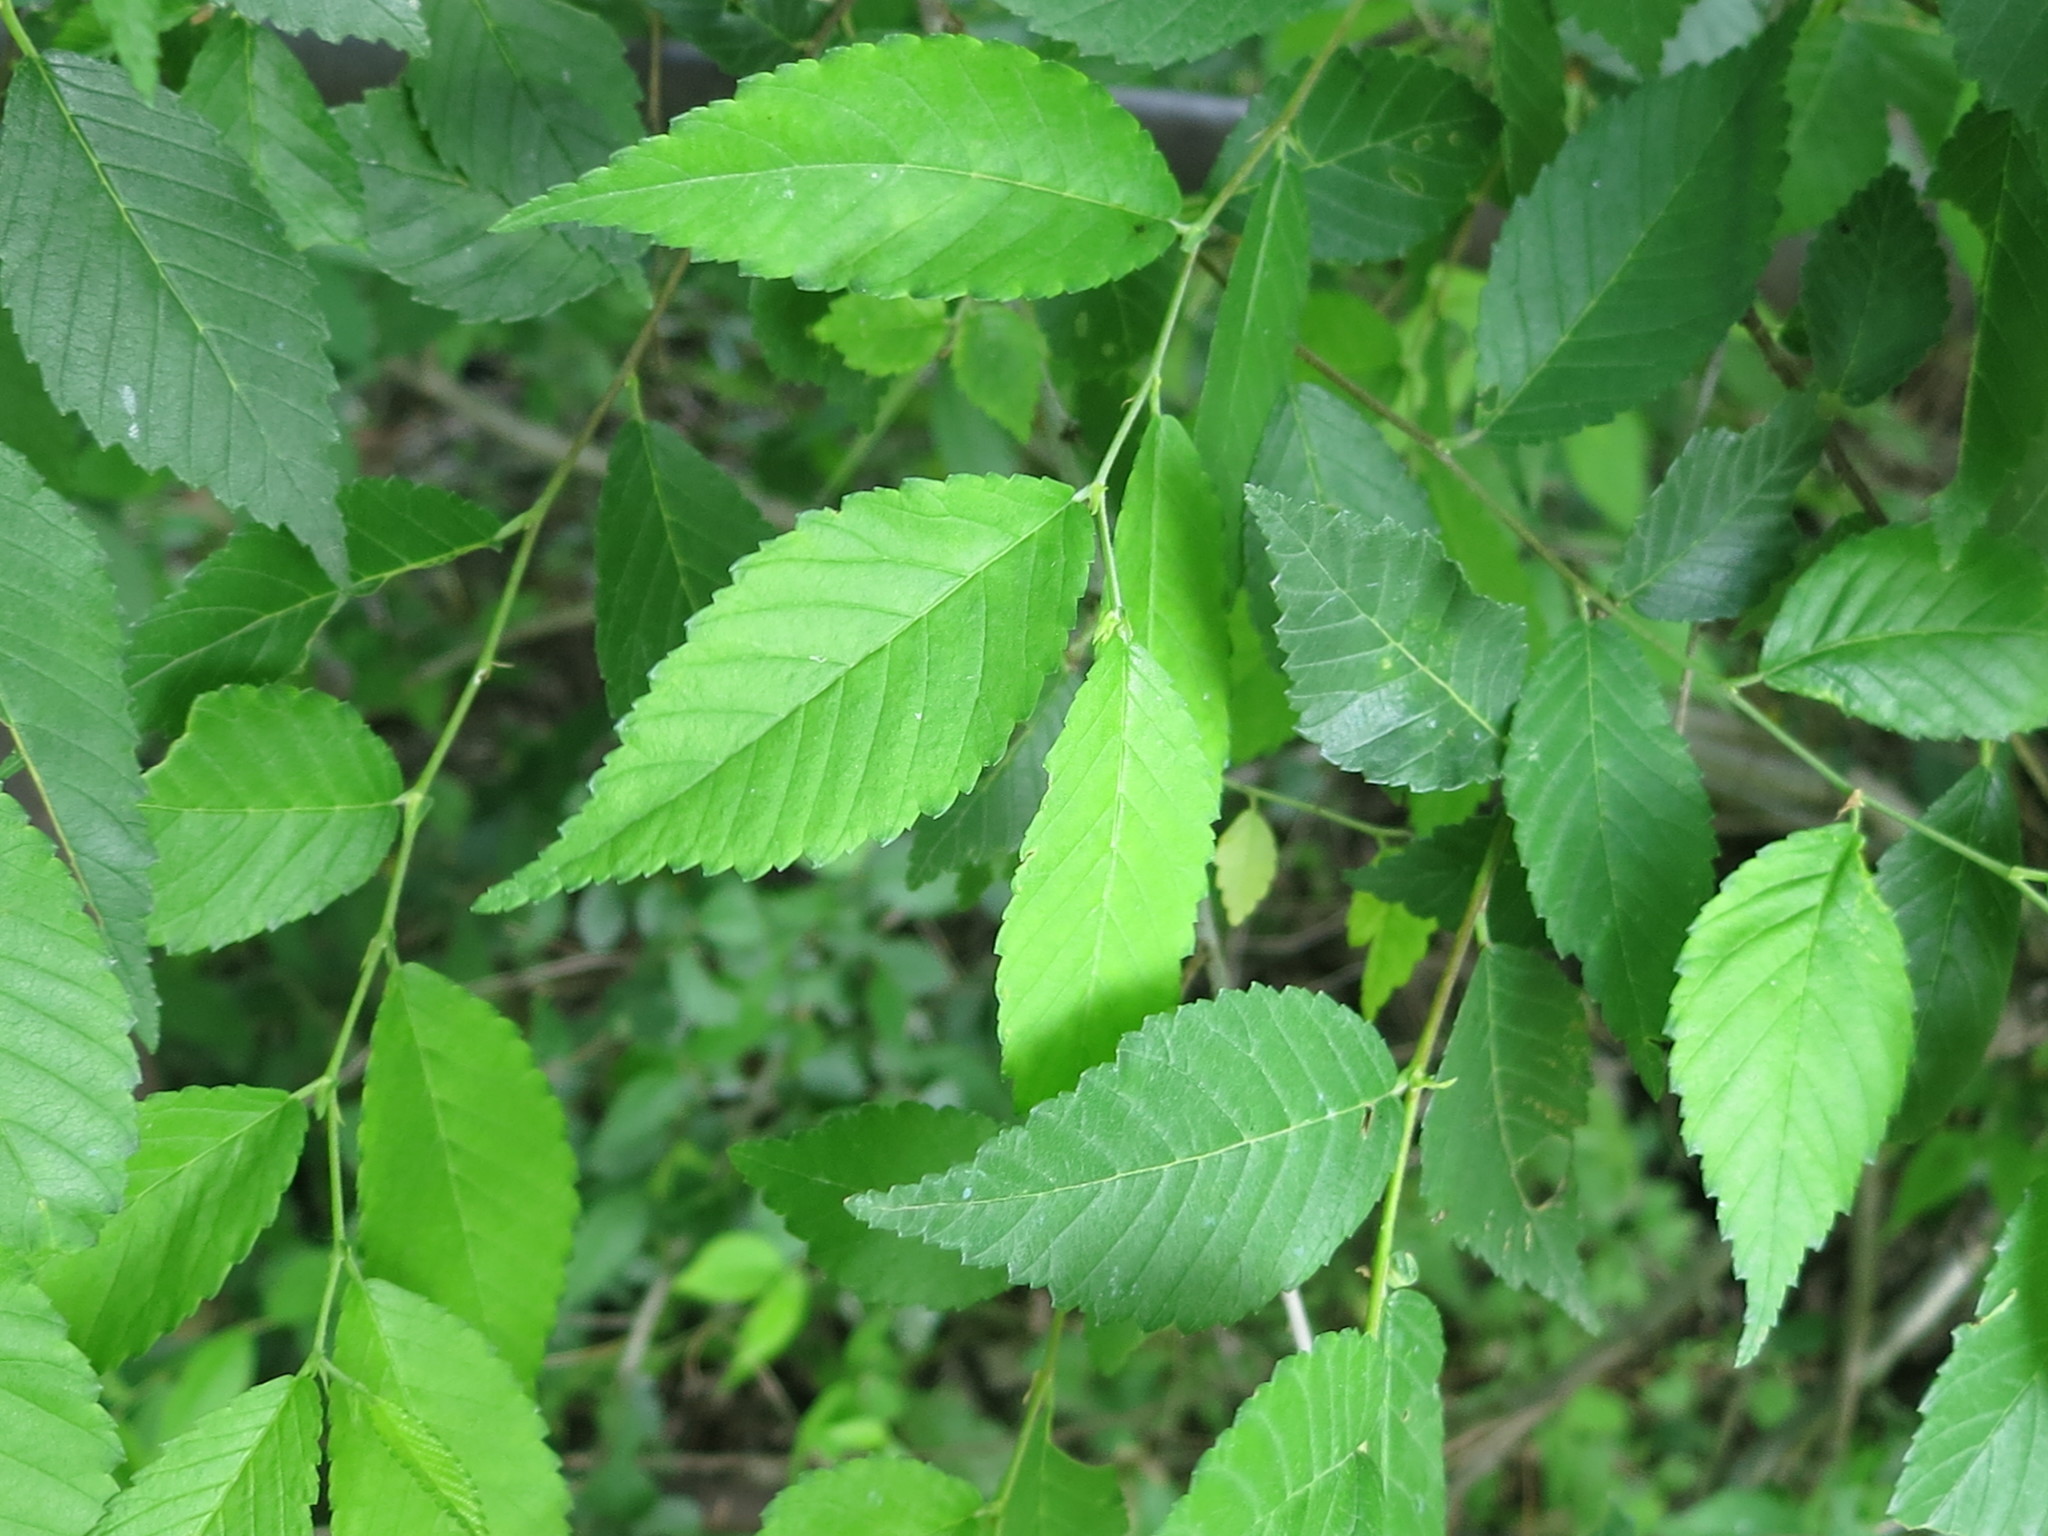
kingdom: Plantae
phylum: Tracheophyta
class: Magnoliopsida
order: Rosales
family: Ulmaceae
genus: Ulmus
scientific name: Ulmus pumila
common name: Siberian elm
